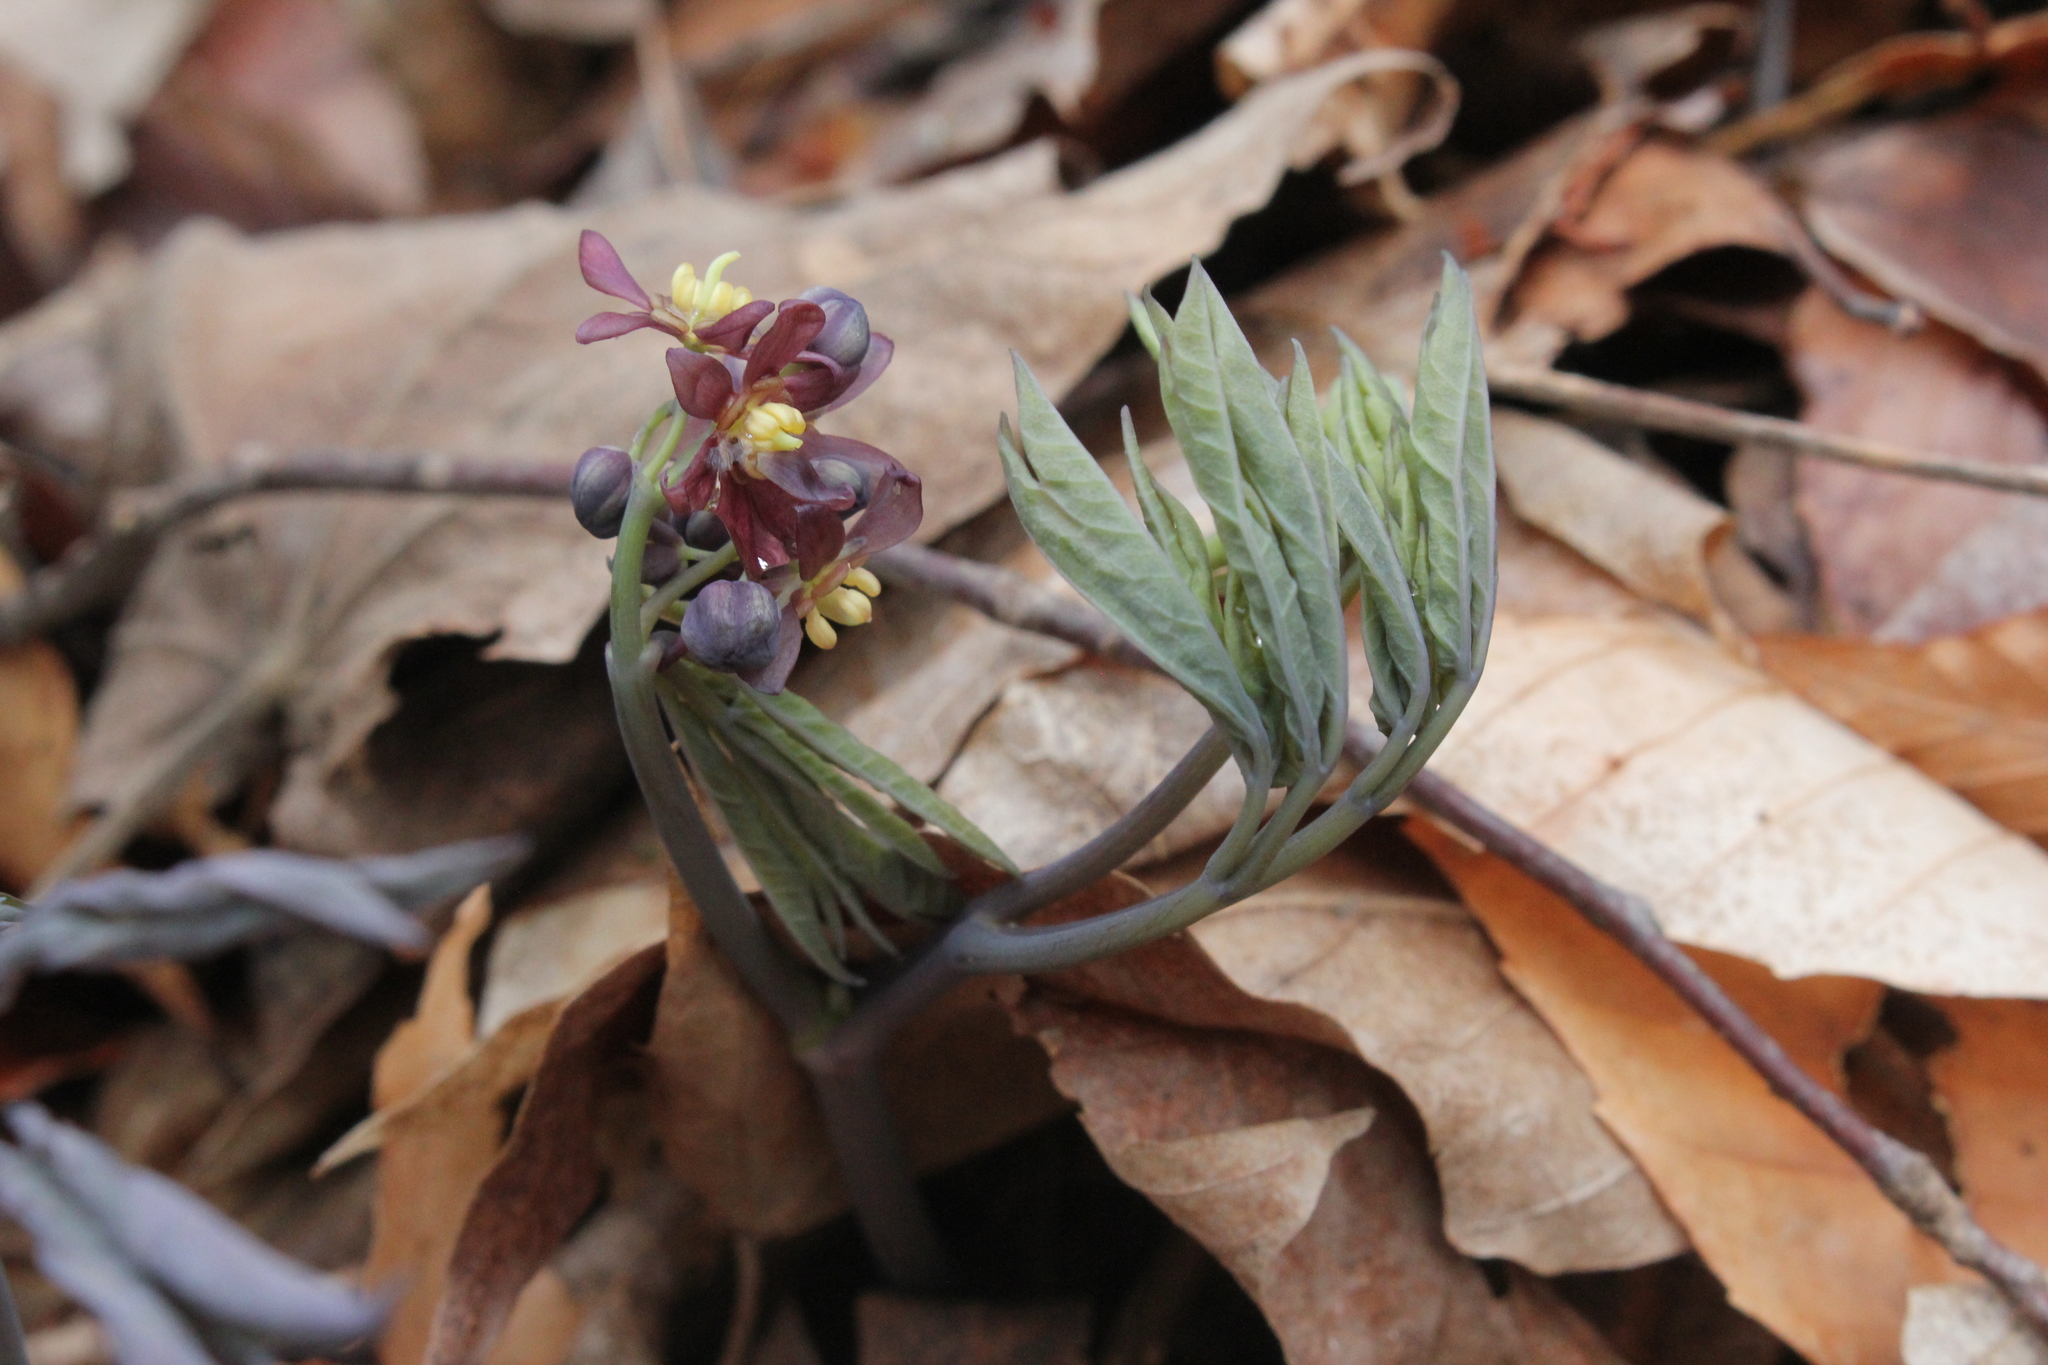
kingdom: Plantae
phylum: Tracheophyta
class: Magnoliopsida
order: Ranunculales
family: Berberidaceae
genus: Caulophyllum
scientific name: Caulophyllum giganteum
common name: Blue cohosh
